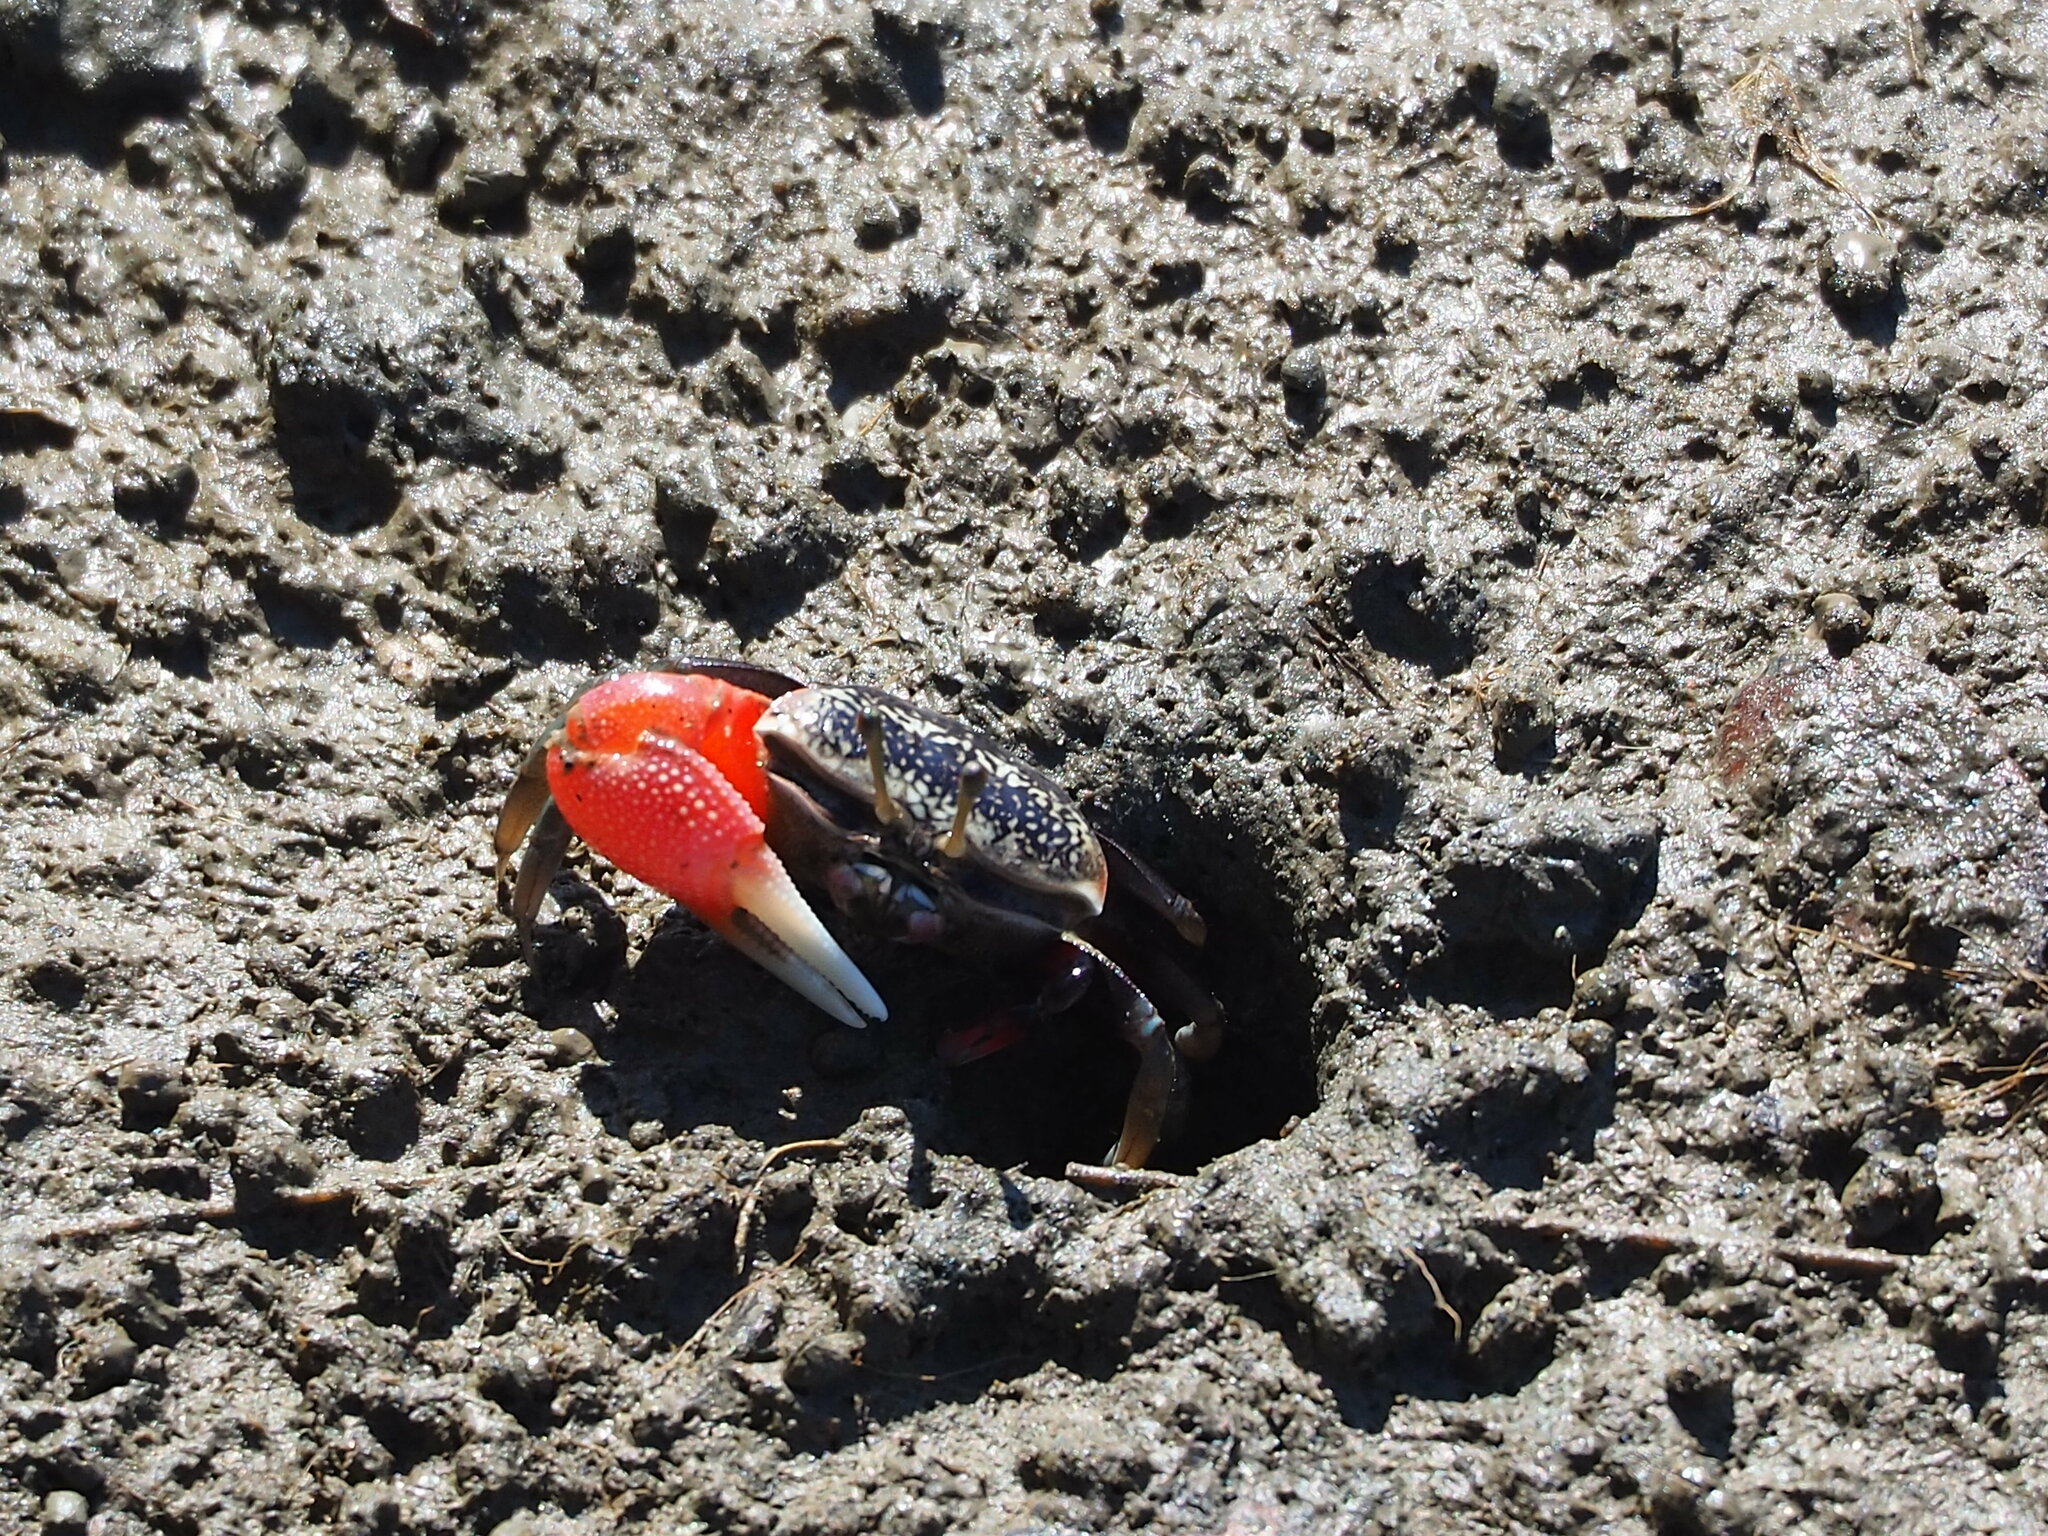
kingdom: Animalia
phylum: Arthropoda
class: Malacostraca
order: Decapoda
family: Ocypodidae
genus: Tubuca
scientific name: Tubuca arcuata
